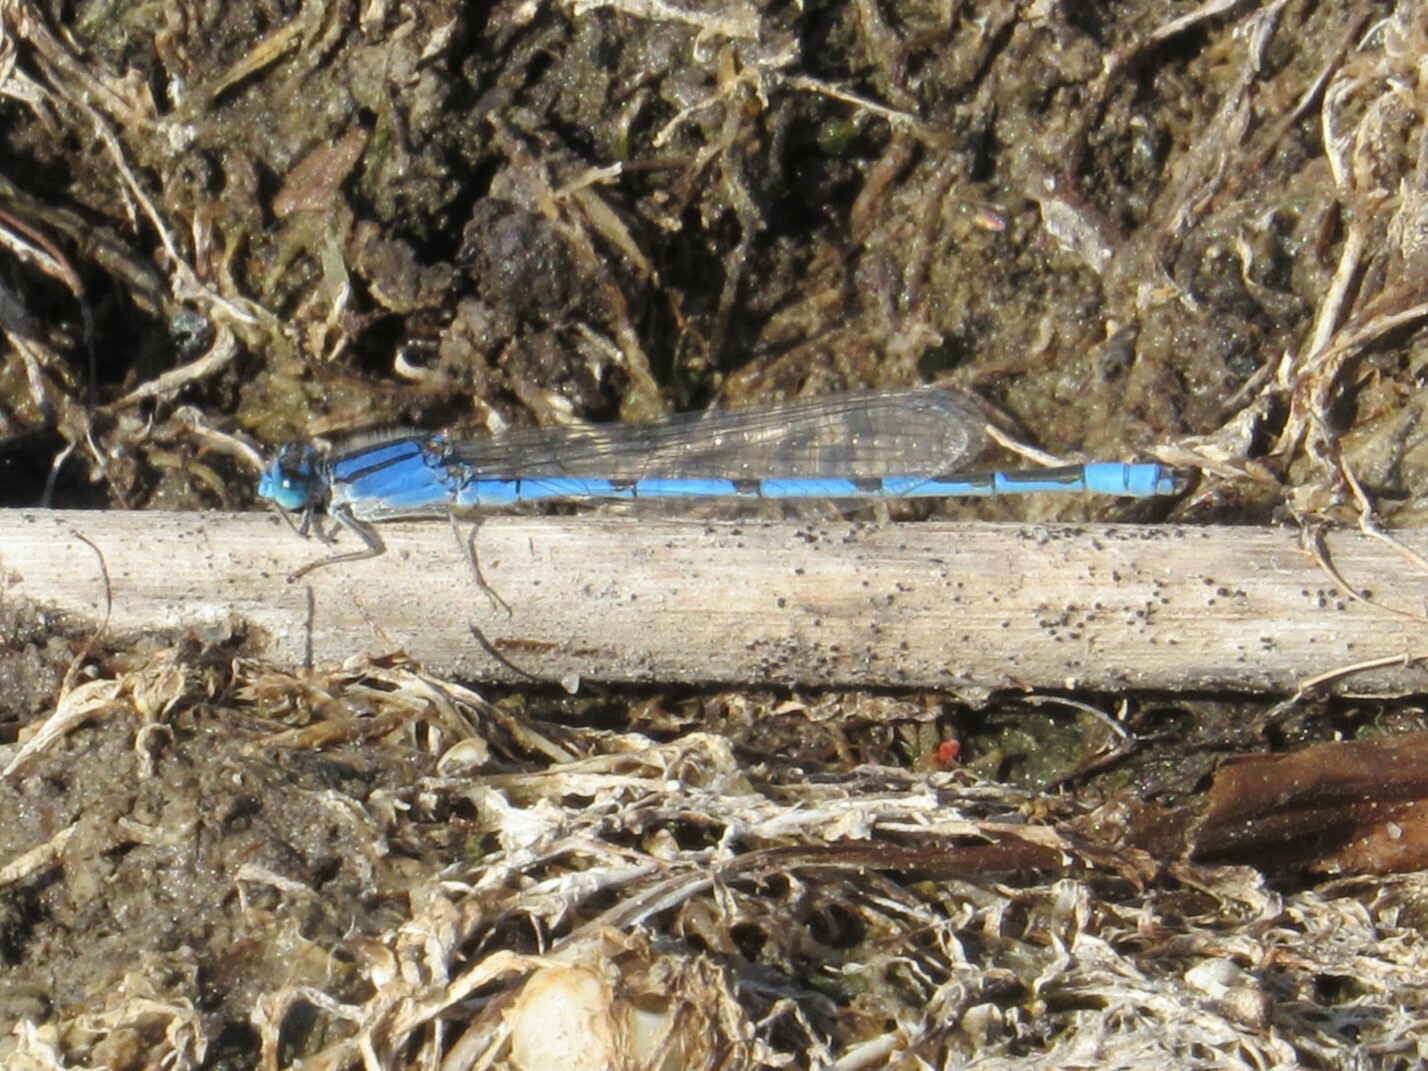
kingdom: Animalia
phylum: Arthropoda
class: Insecta
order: Odonata
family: Coenagrionidae
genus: Enallagma
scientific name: Enallagma civile
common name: Damselfly
